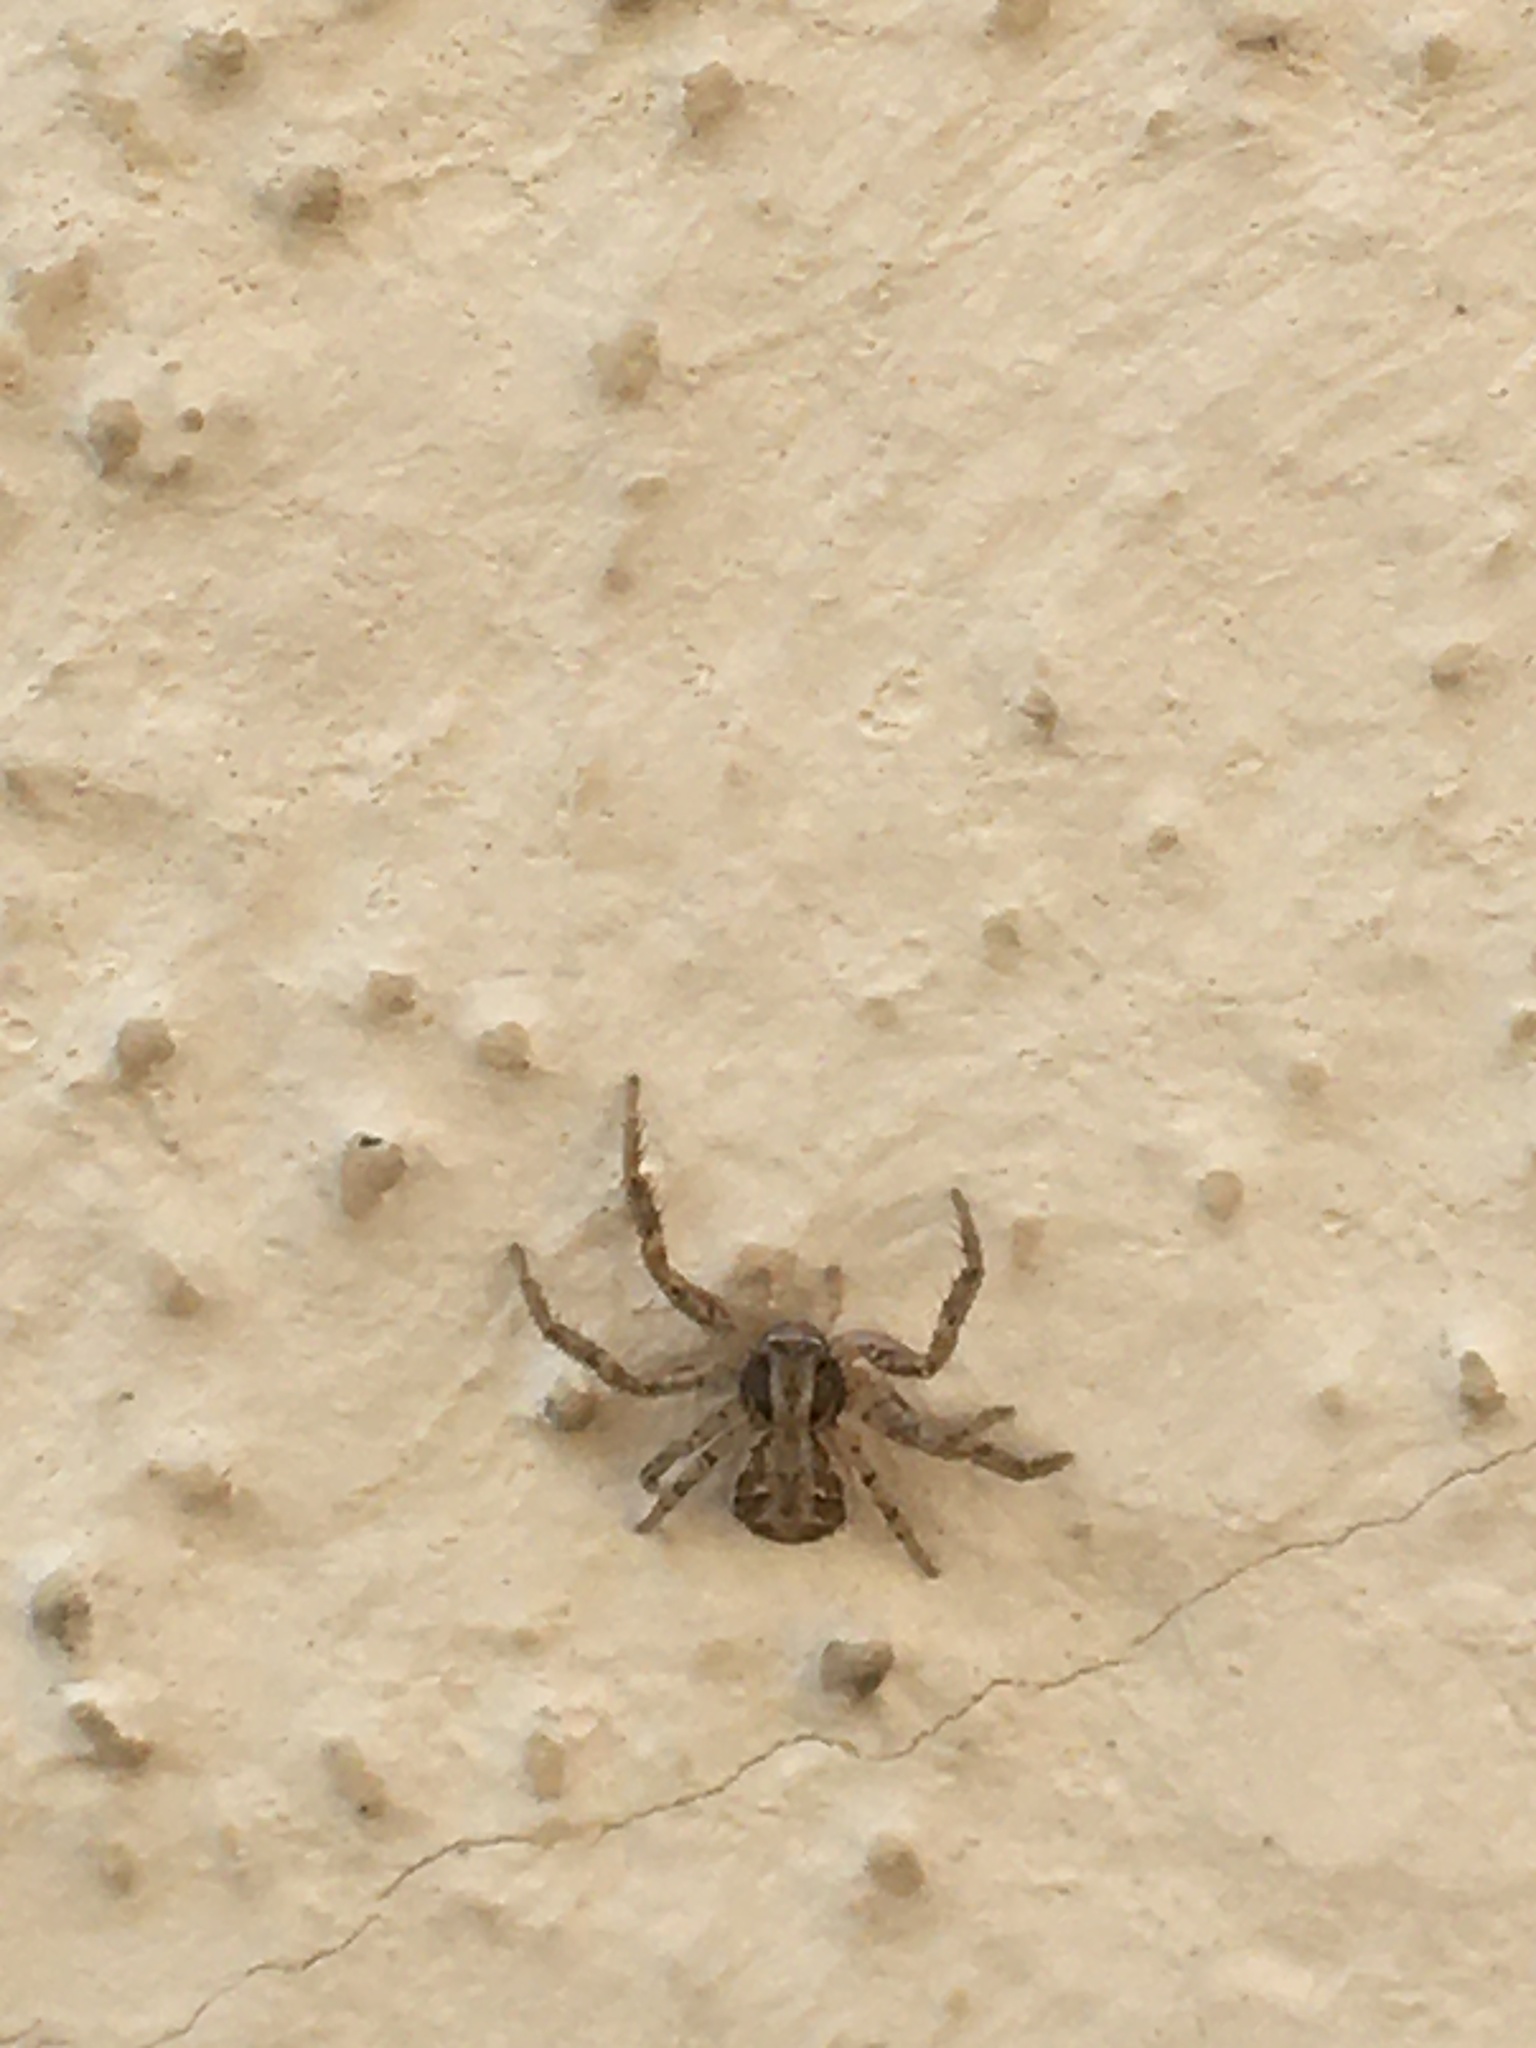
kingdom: Animalia
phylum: Arthropoda
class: Arachnida
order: Araneae
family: Thomisidae
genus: Xysticus
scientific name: Xysticus
